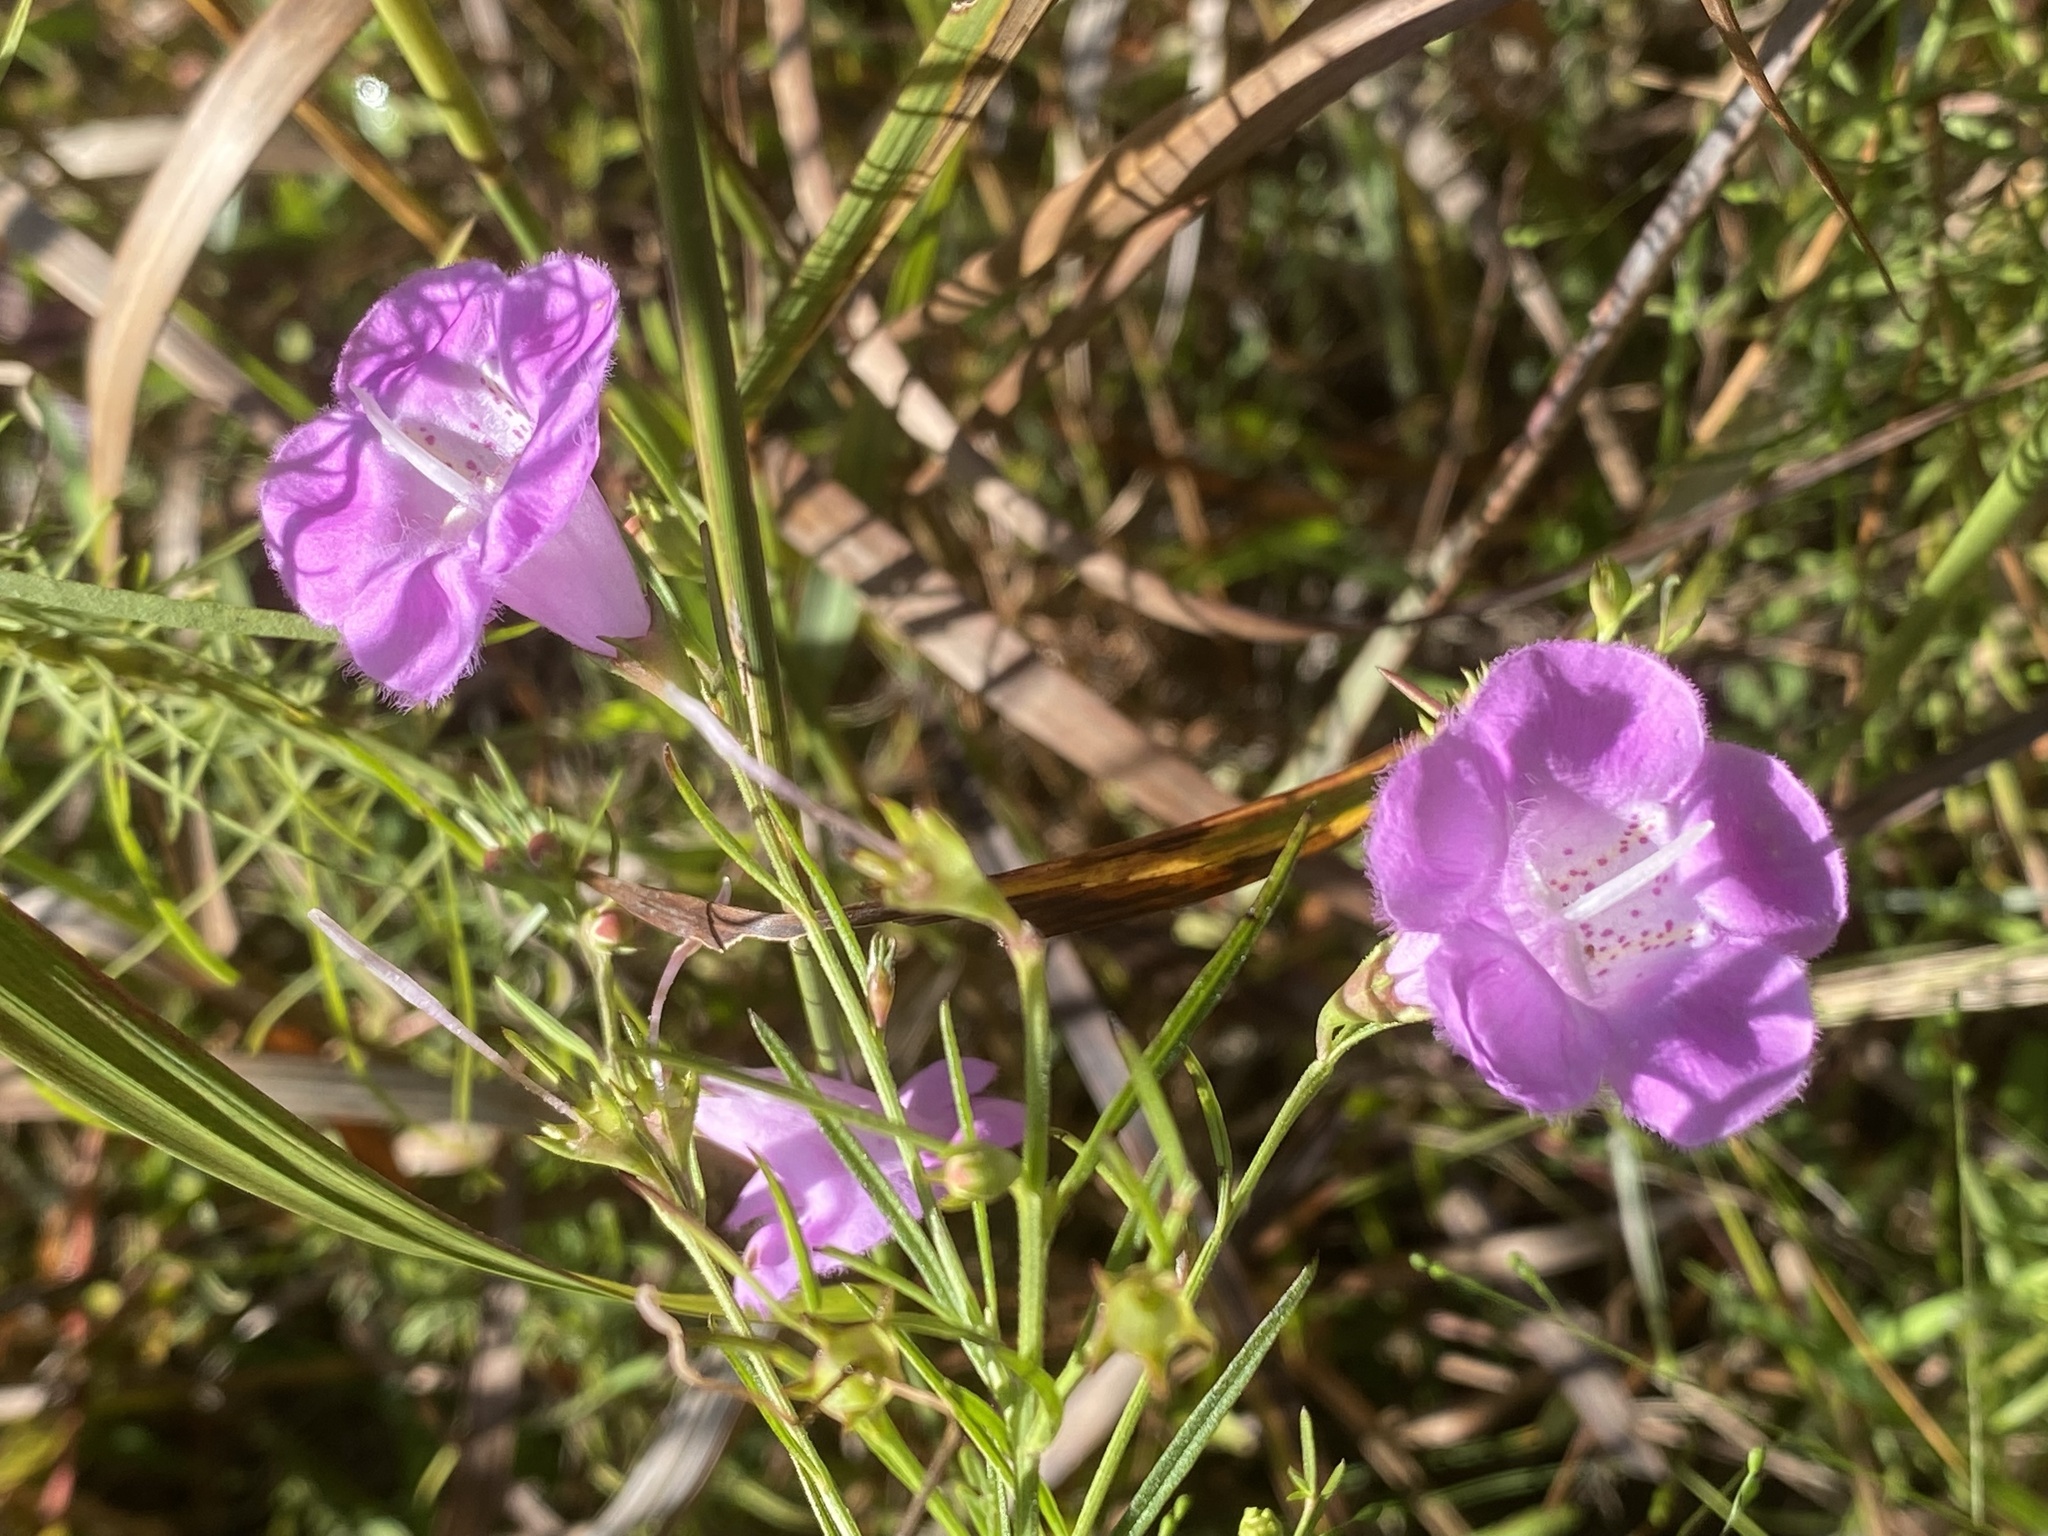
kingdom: Plantae
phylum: Tracheophyta
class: Magnoliopsida
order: Lamiales
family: Orobanchaceae
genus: Agalinis
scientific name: Agalinis fasciculata
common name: Beach false foxglove
